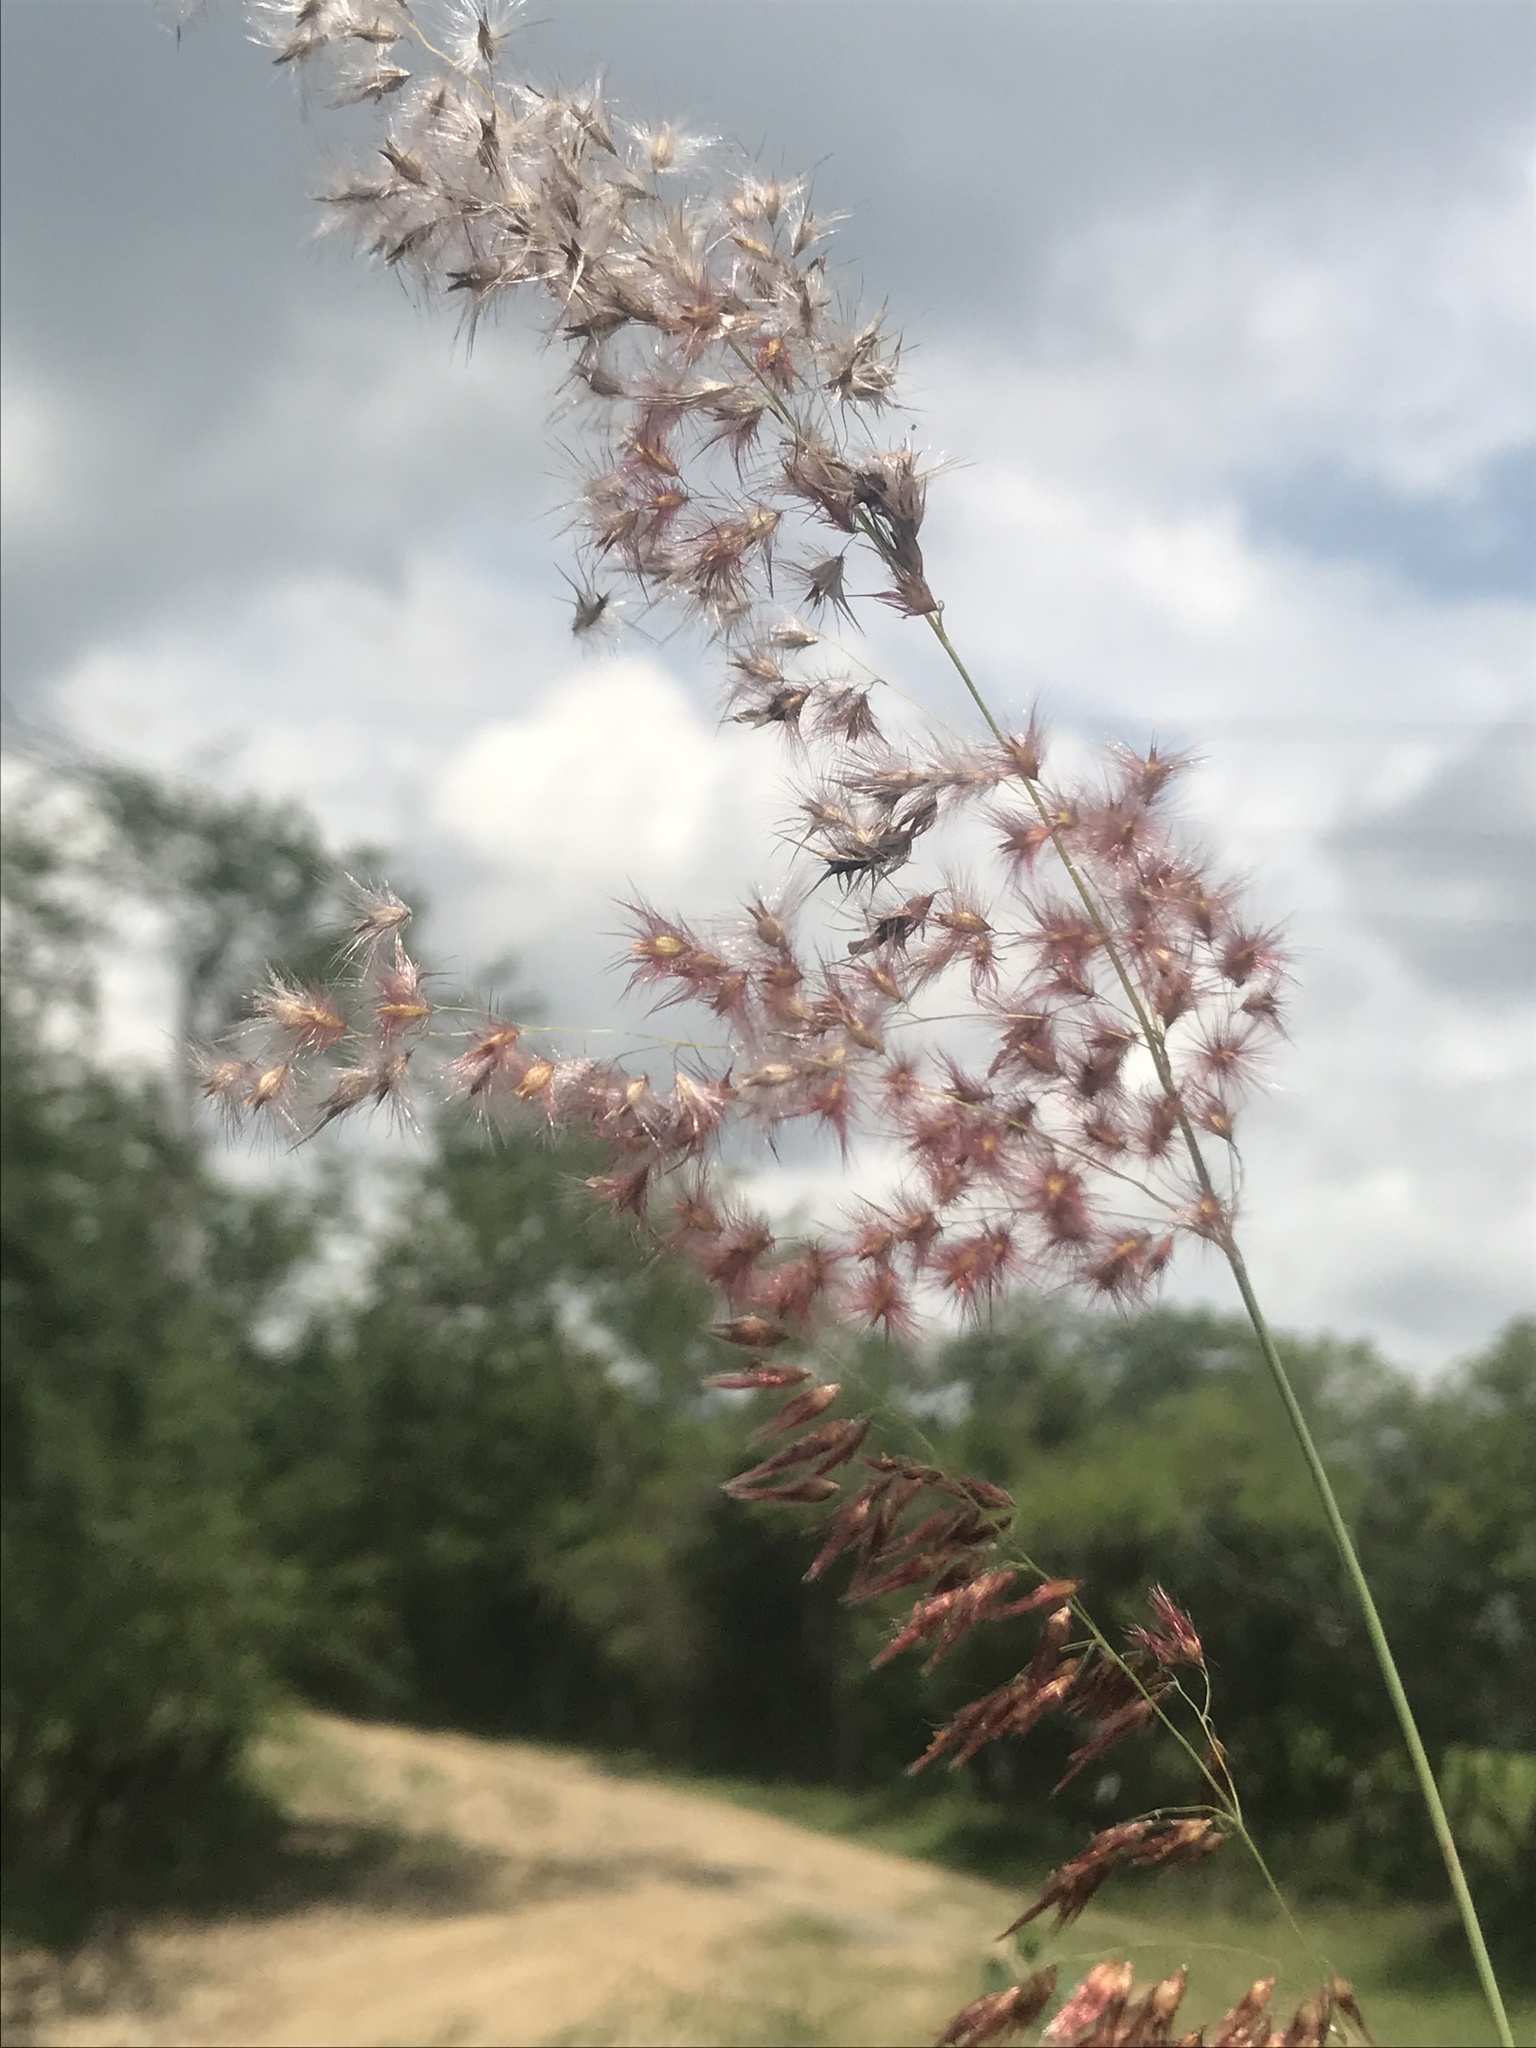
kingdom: Plantae
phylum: Tracheophyta
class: Liliopsida
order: Poales
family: Poaceae
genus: Melinis
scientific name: Melinis repens
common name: Rose natal grass
